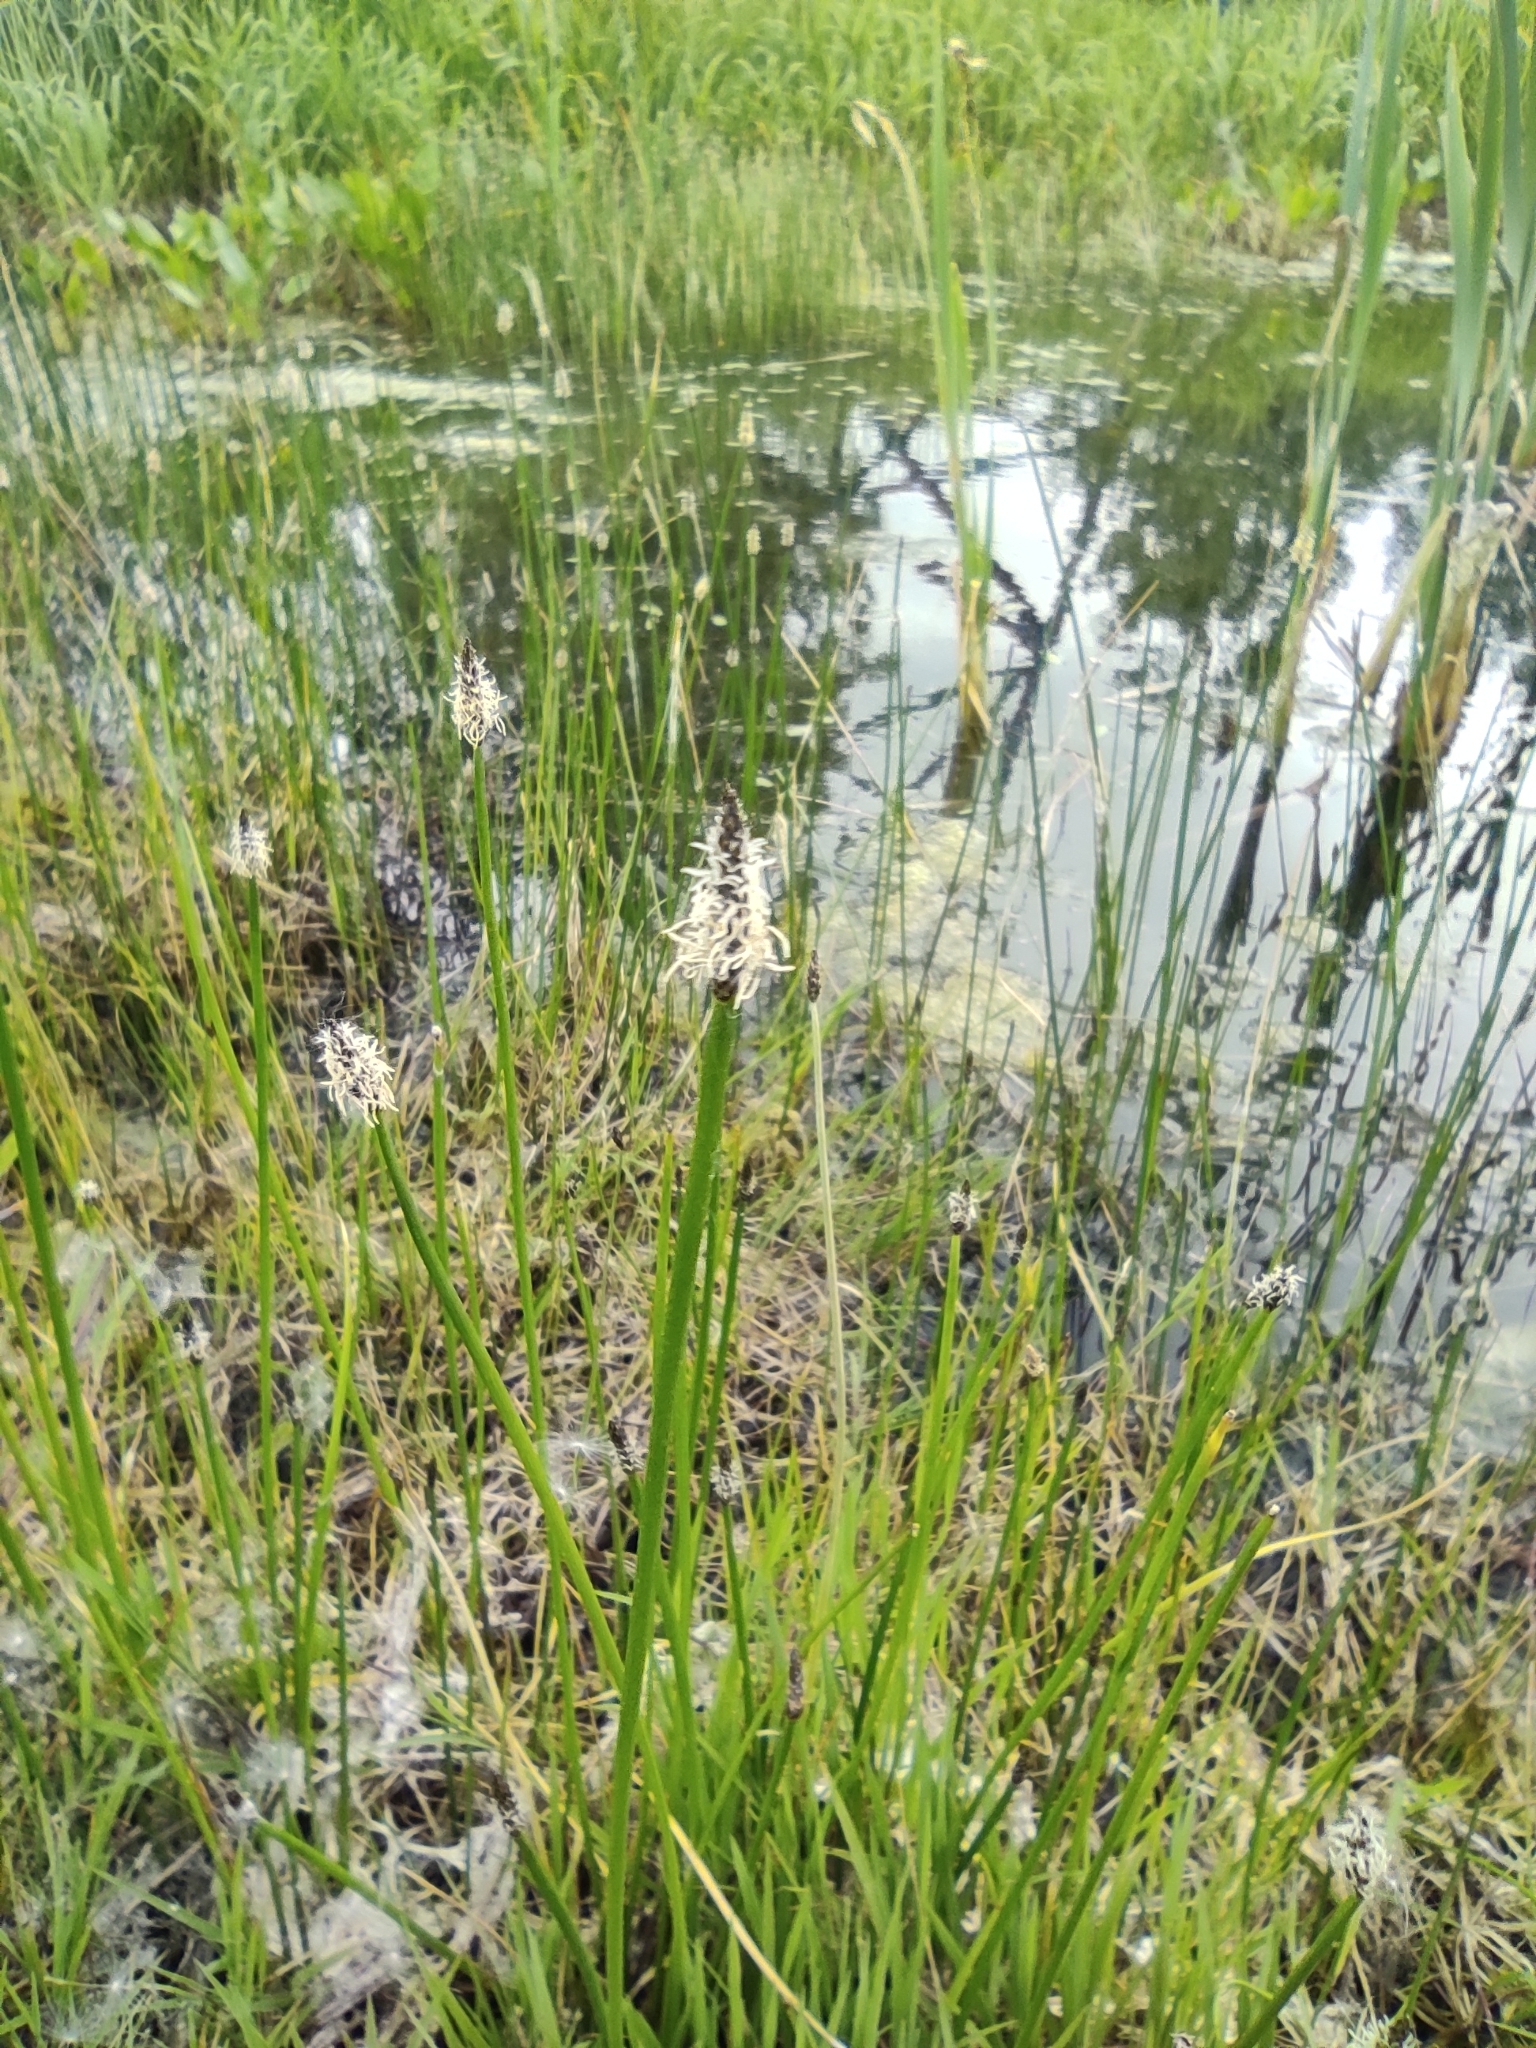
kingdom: Plantae
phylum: Tracheophyta
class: Liliopsida
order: Poales
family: Cyperaceae
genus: Eleocharis
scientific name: Eleocharis palustris
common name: Common spike-rush
